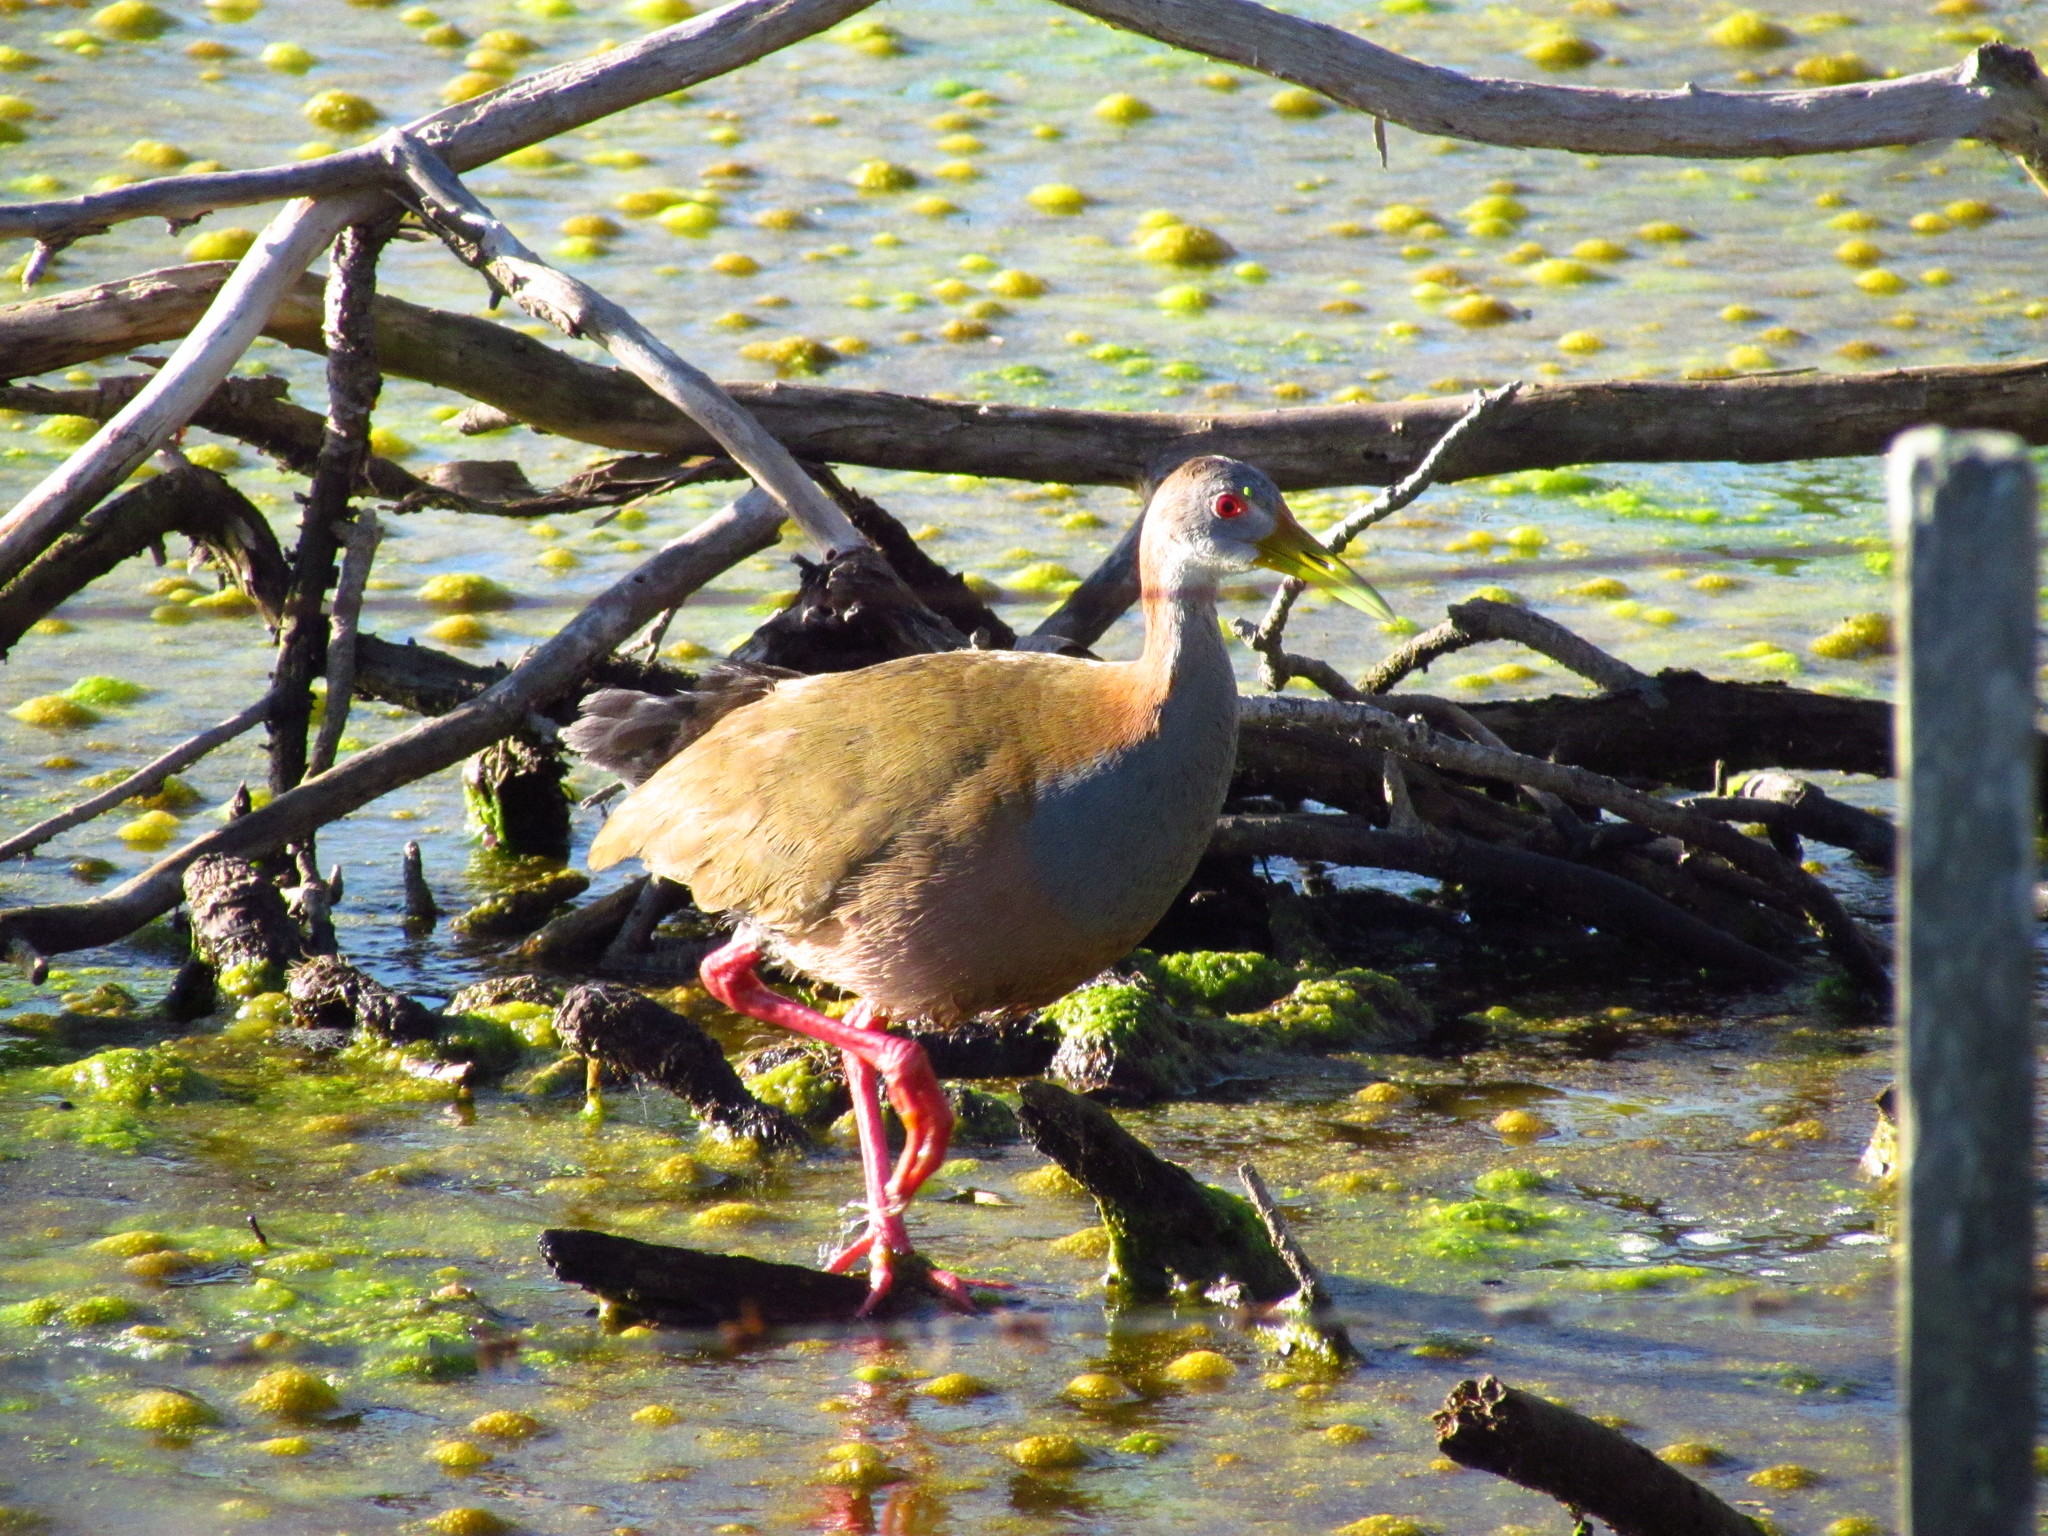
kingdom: Animalia
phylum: Chordata
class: Aves
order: Gruiformes
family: Rallidae
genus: Aramides
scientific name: Aramides ypecaha
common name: Giant wood rail
